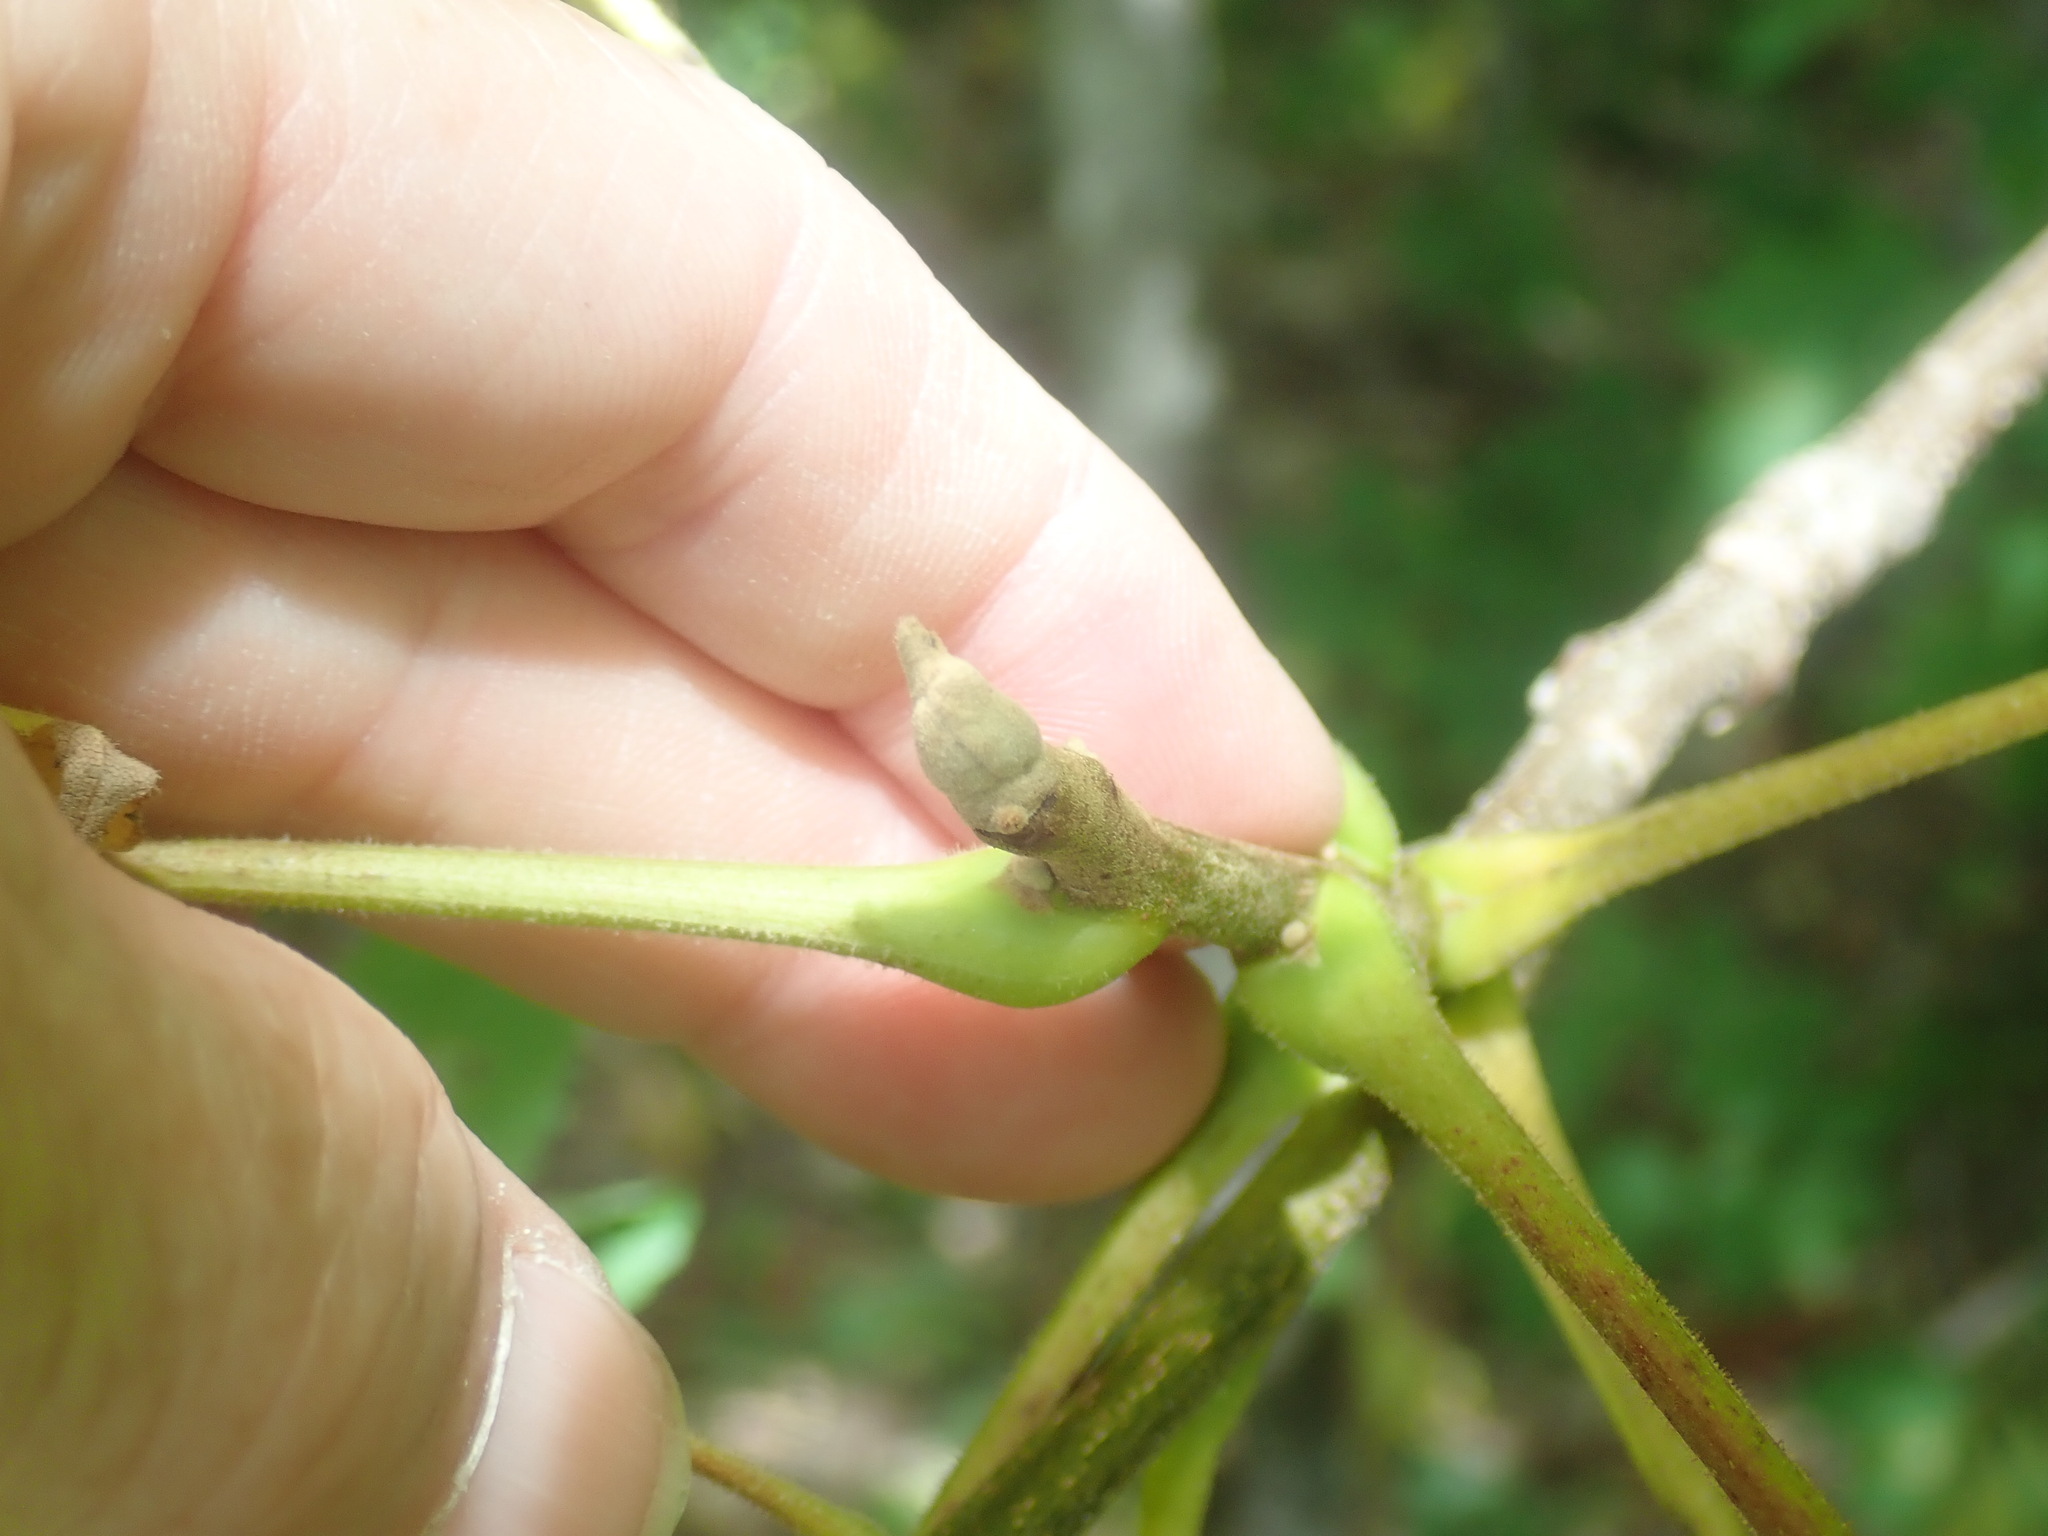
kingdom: Plantae
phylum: Tracheophyta
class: Magnoliopsida
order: Fagales
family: Juglandaceae
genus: Juglans
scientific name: Juglans cinerea
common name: Butternut
